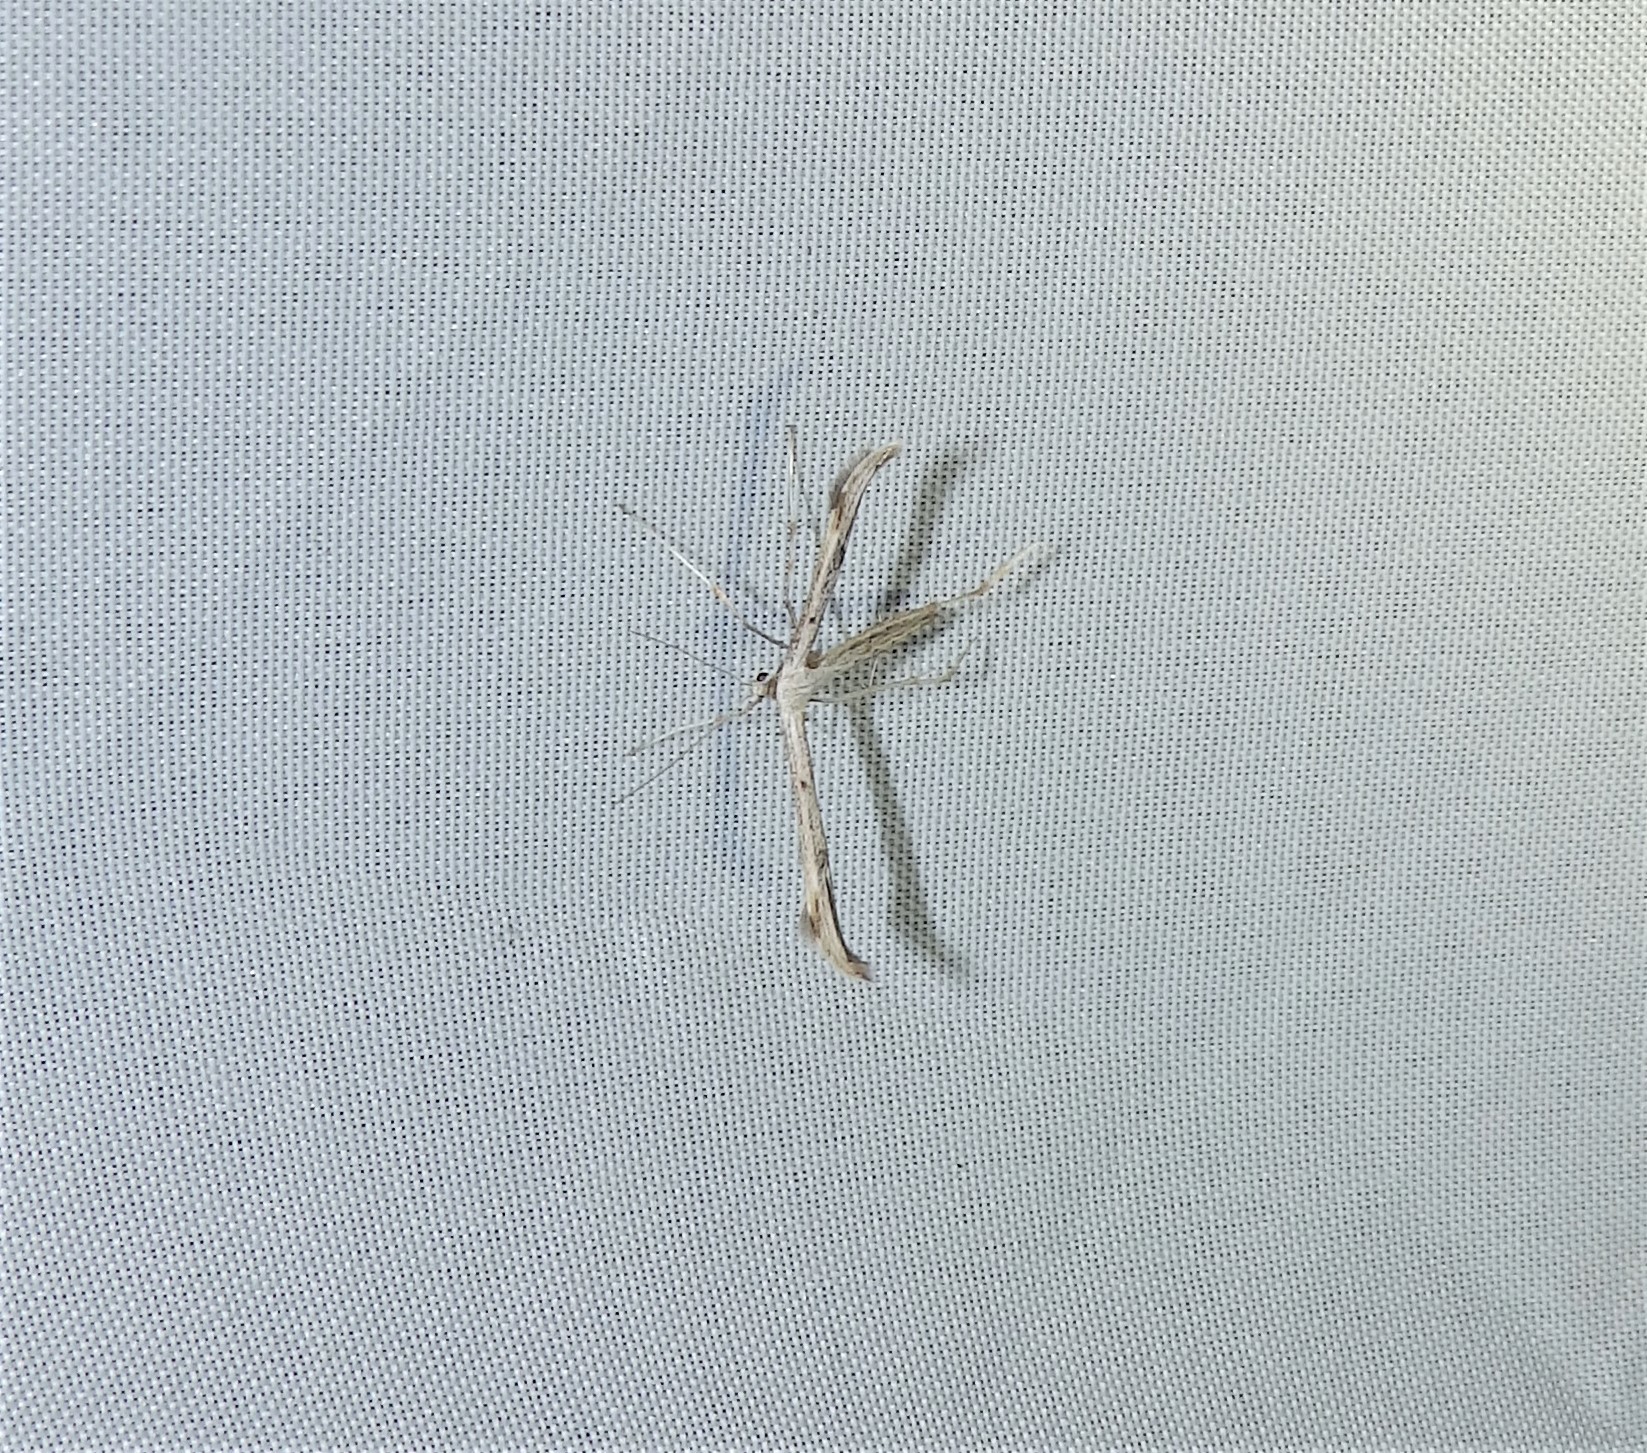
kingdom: Animalia
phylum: Arthropoda
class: Insecta
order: Lepidoptera
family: Pterophoridae
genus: Emmelina
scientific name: Emmelina monodactyla
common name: Common plume
